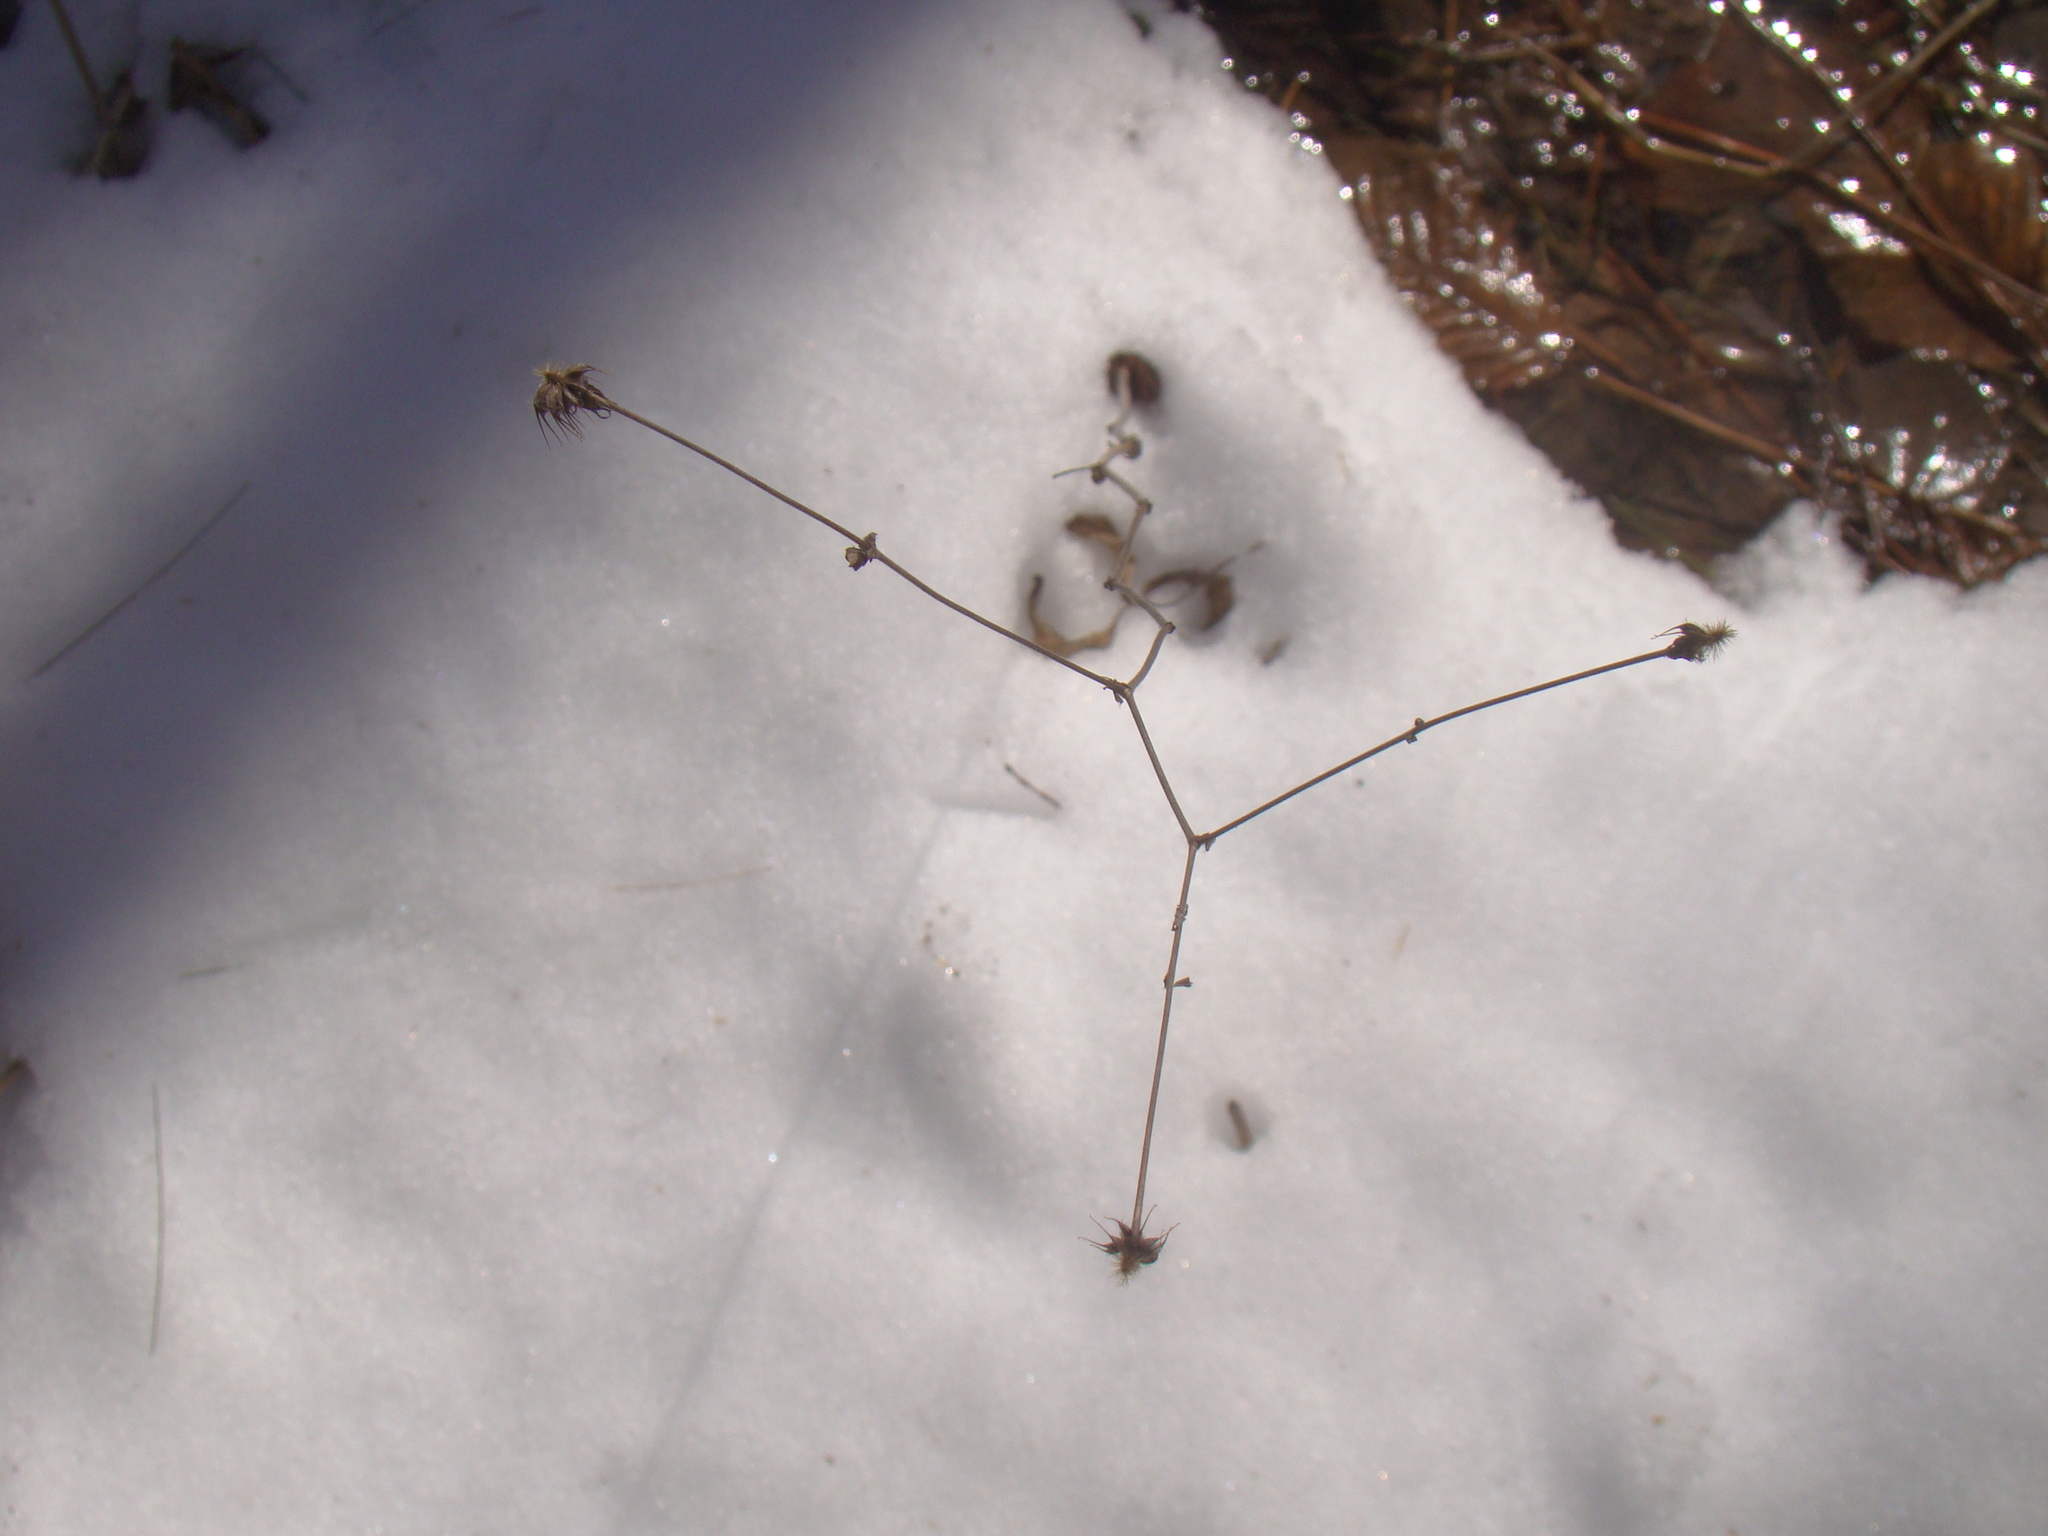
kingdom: Plantae
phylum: Tracheophyta
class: Magnoliopsida
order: Rosales
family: Rosaceae
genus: Geum
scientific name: Geum canadense
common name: White avens
